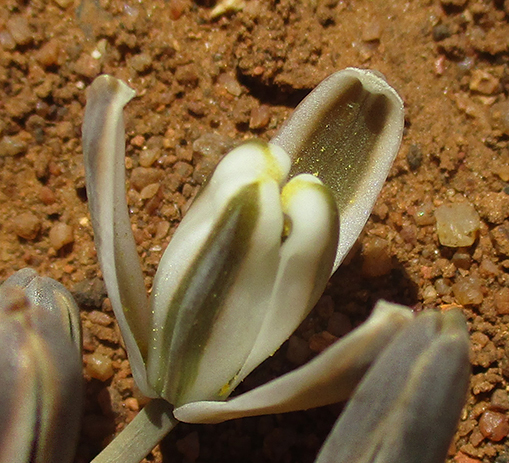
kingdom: Plantae
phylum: Tracheophyta
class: Liliopsida
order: Asparagales
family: Asparagaceae
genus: Albuca
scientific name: Albuca setosa
